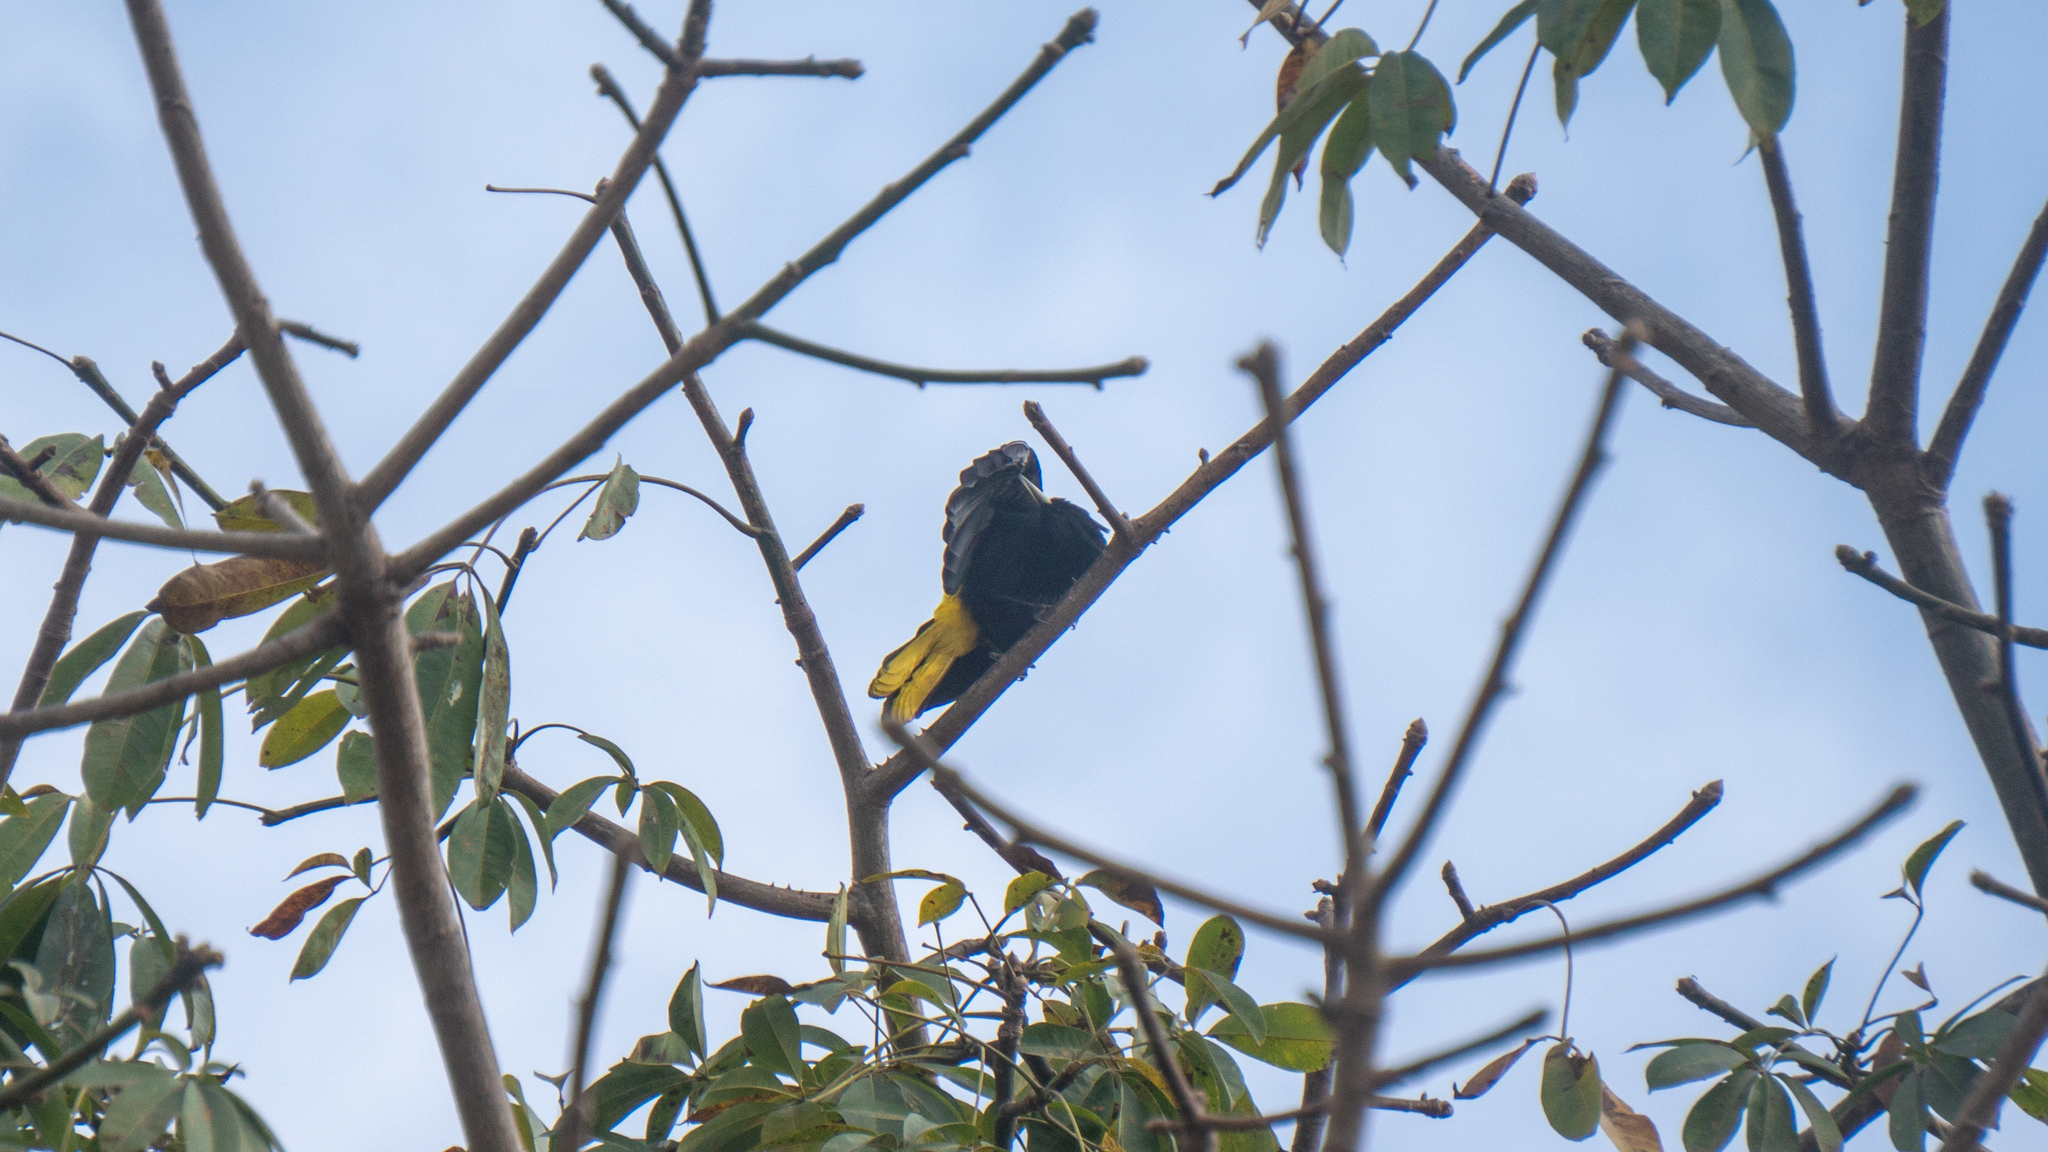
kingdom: Animalia
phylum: Chordata
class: Aves
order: Passeriformes
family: Icteridae
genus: Cacicus
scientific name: Cacicus melanicterus
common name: Yellow-winged cacique
